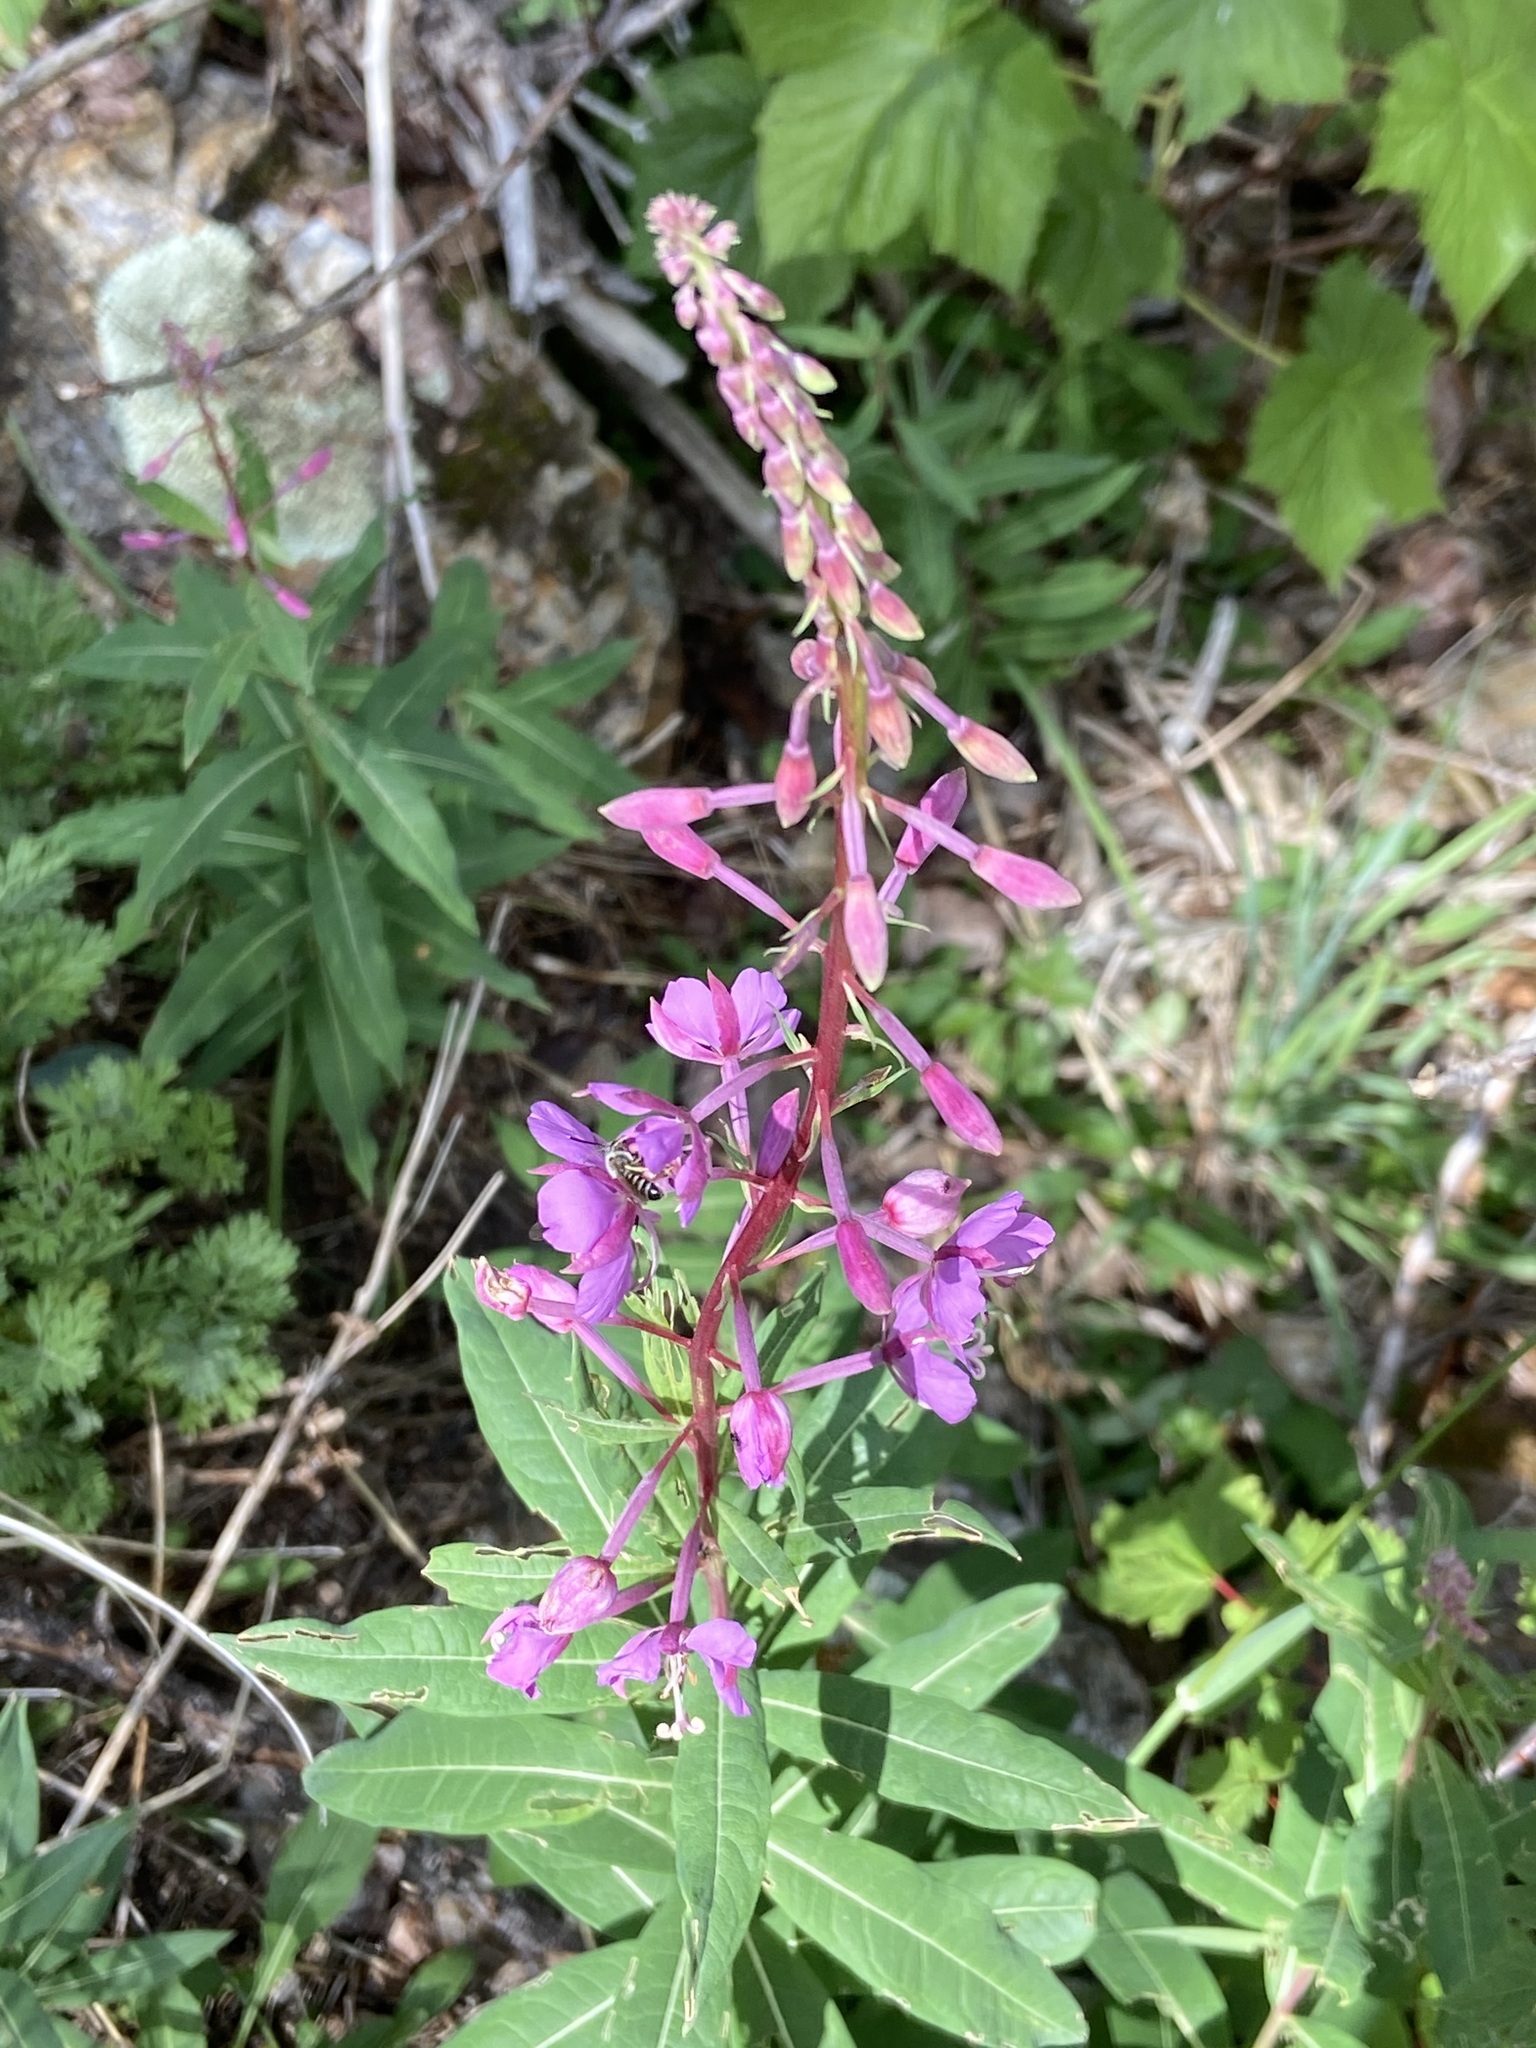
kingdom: Plantae
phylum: Tracheophyta
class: Magnoliopsida
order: Myrtales
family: Onagraceae
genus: Chamaenerion
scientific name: Chamaenerion angustifolium
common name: Fireweed
